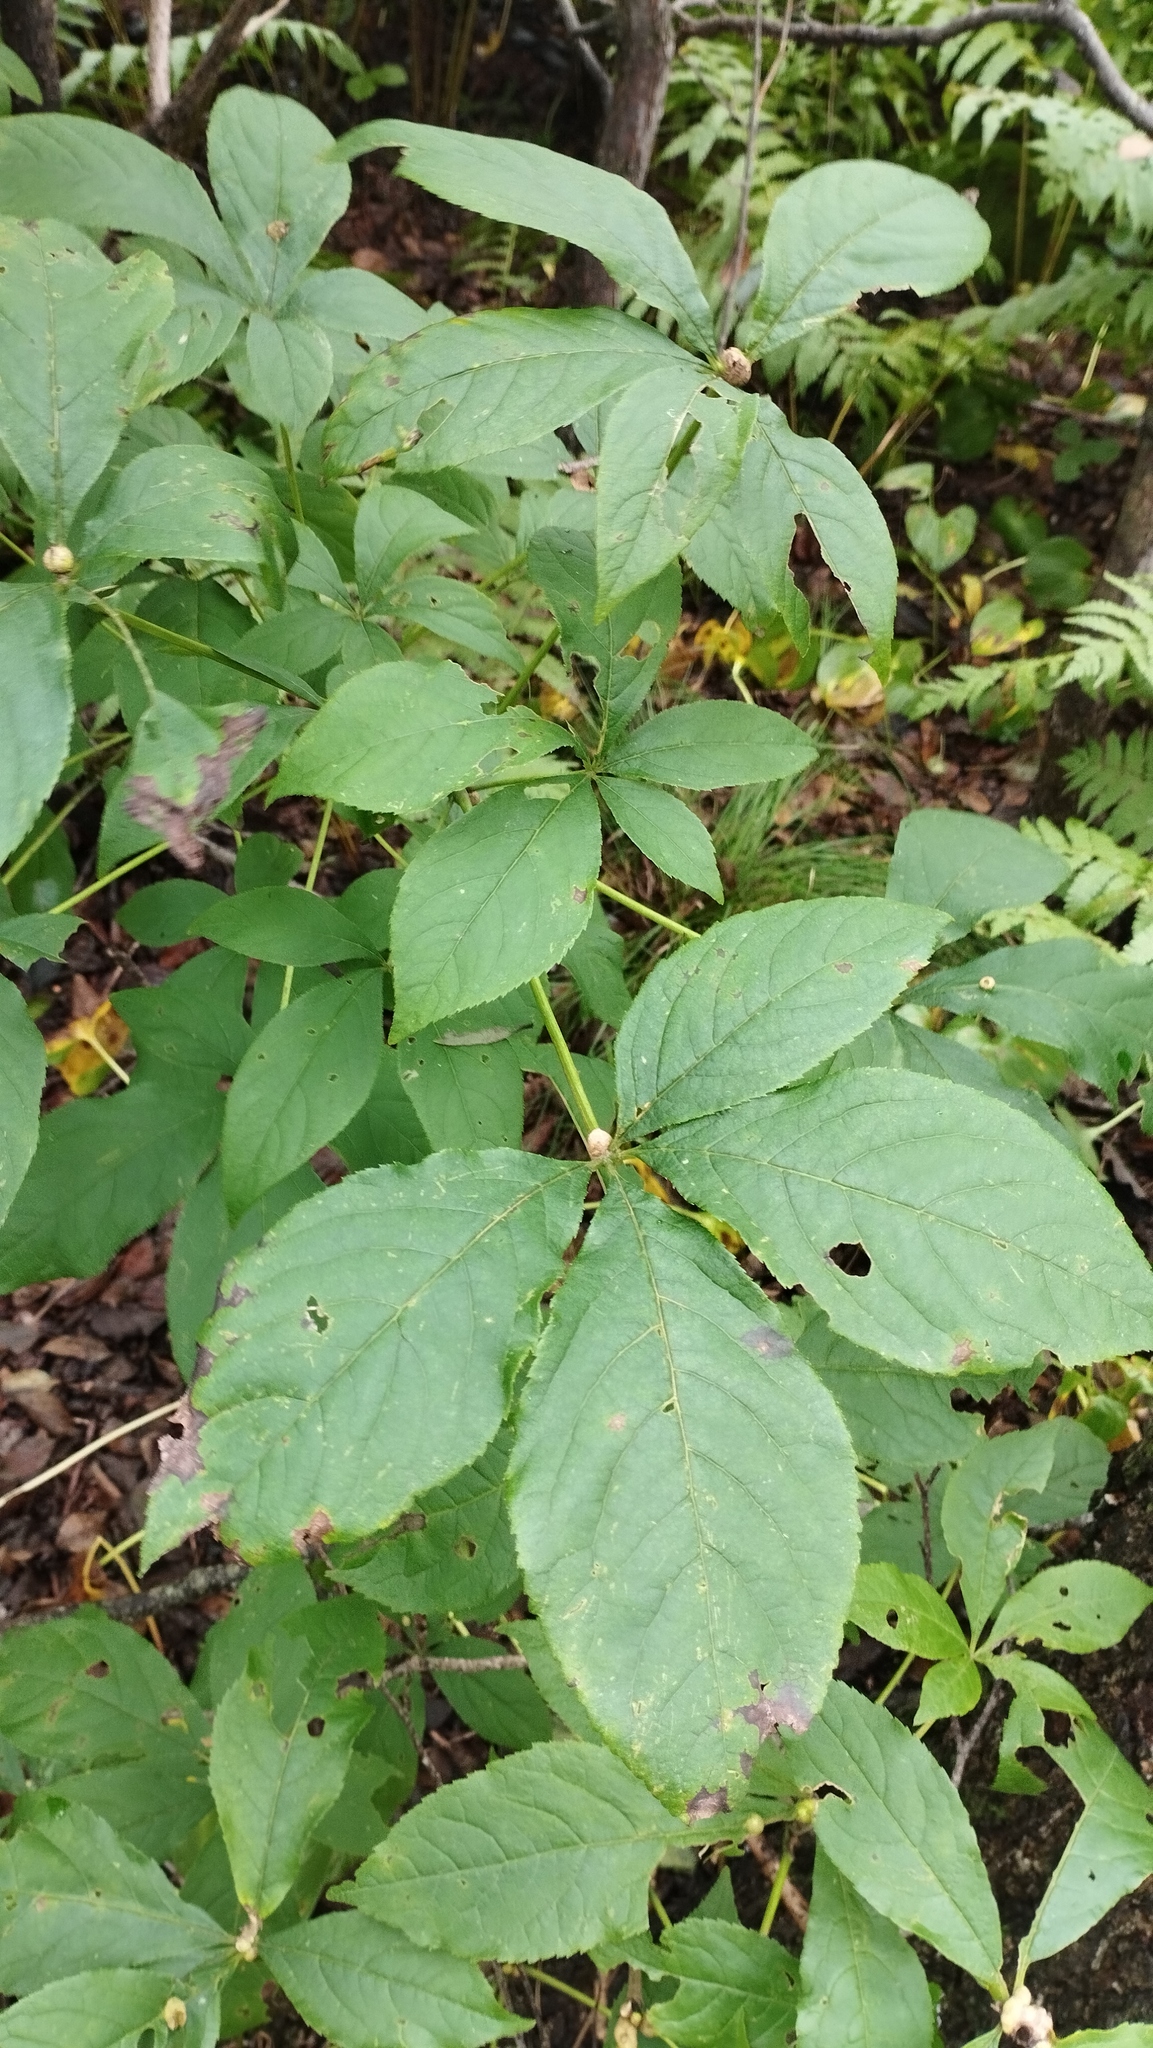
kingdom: Plantae
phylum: Tracheophyta
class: Magnoliopsida
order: Apiales
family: Araliaceae
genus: Eleutherococcus
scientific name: Eleutherococcus sessiliflorus
